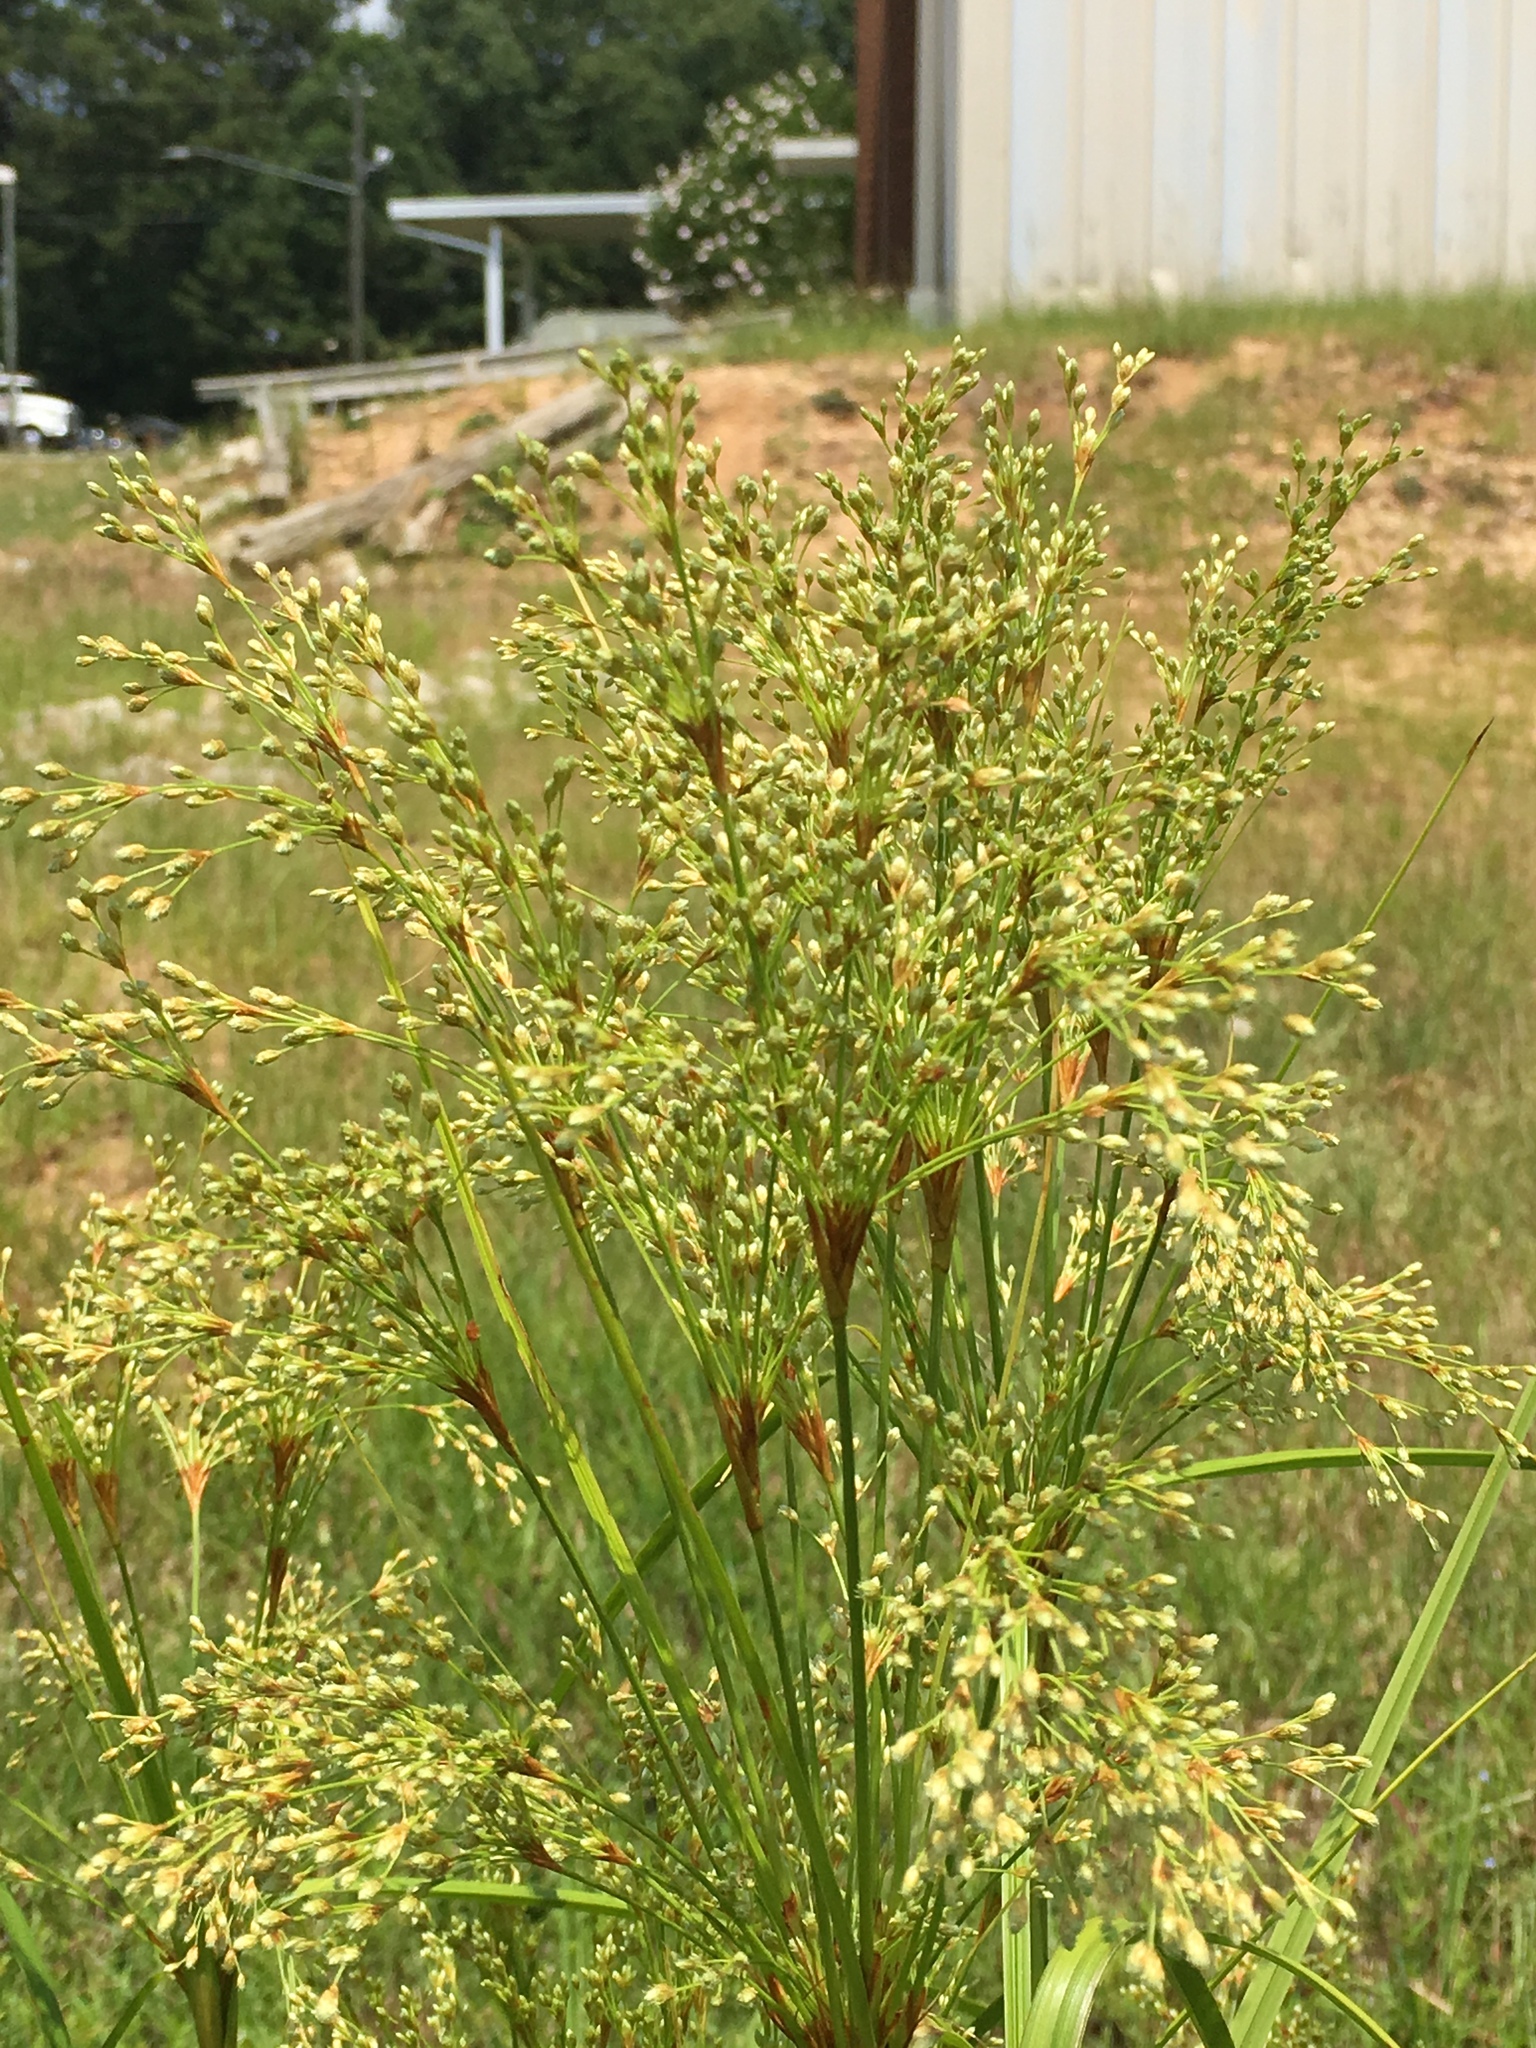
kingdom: Plantae
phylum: Tracheophyta
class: Liliopsida
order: Poales
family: Cyperaceae
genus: Scirpus
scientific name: Scirpus cyperinus
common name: Black-sheathed bulrush
